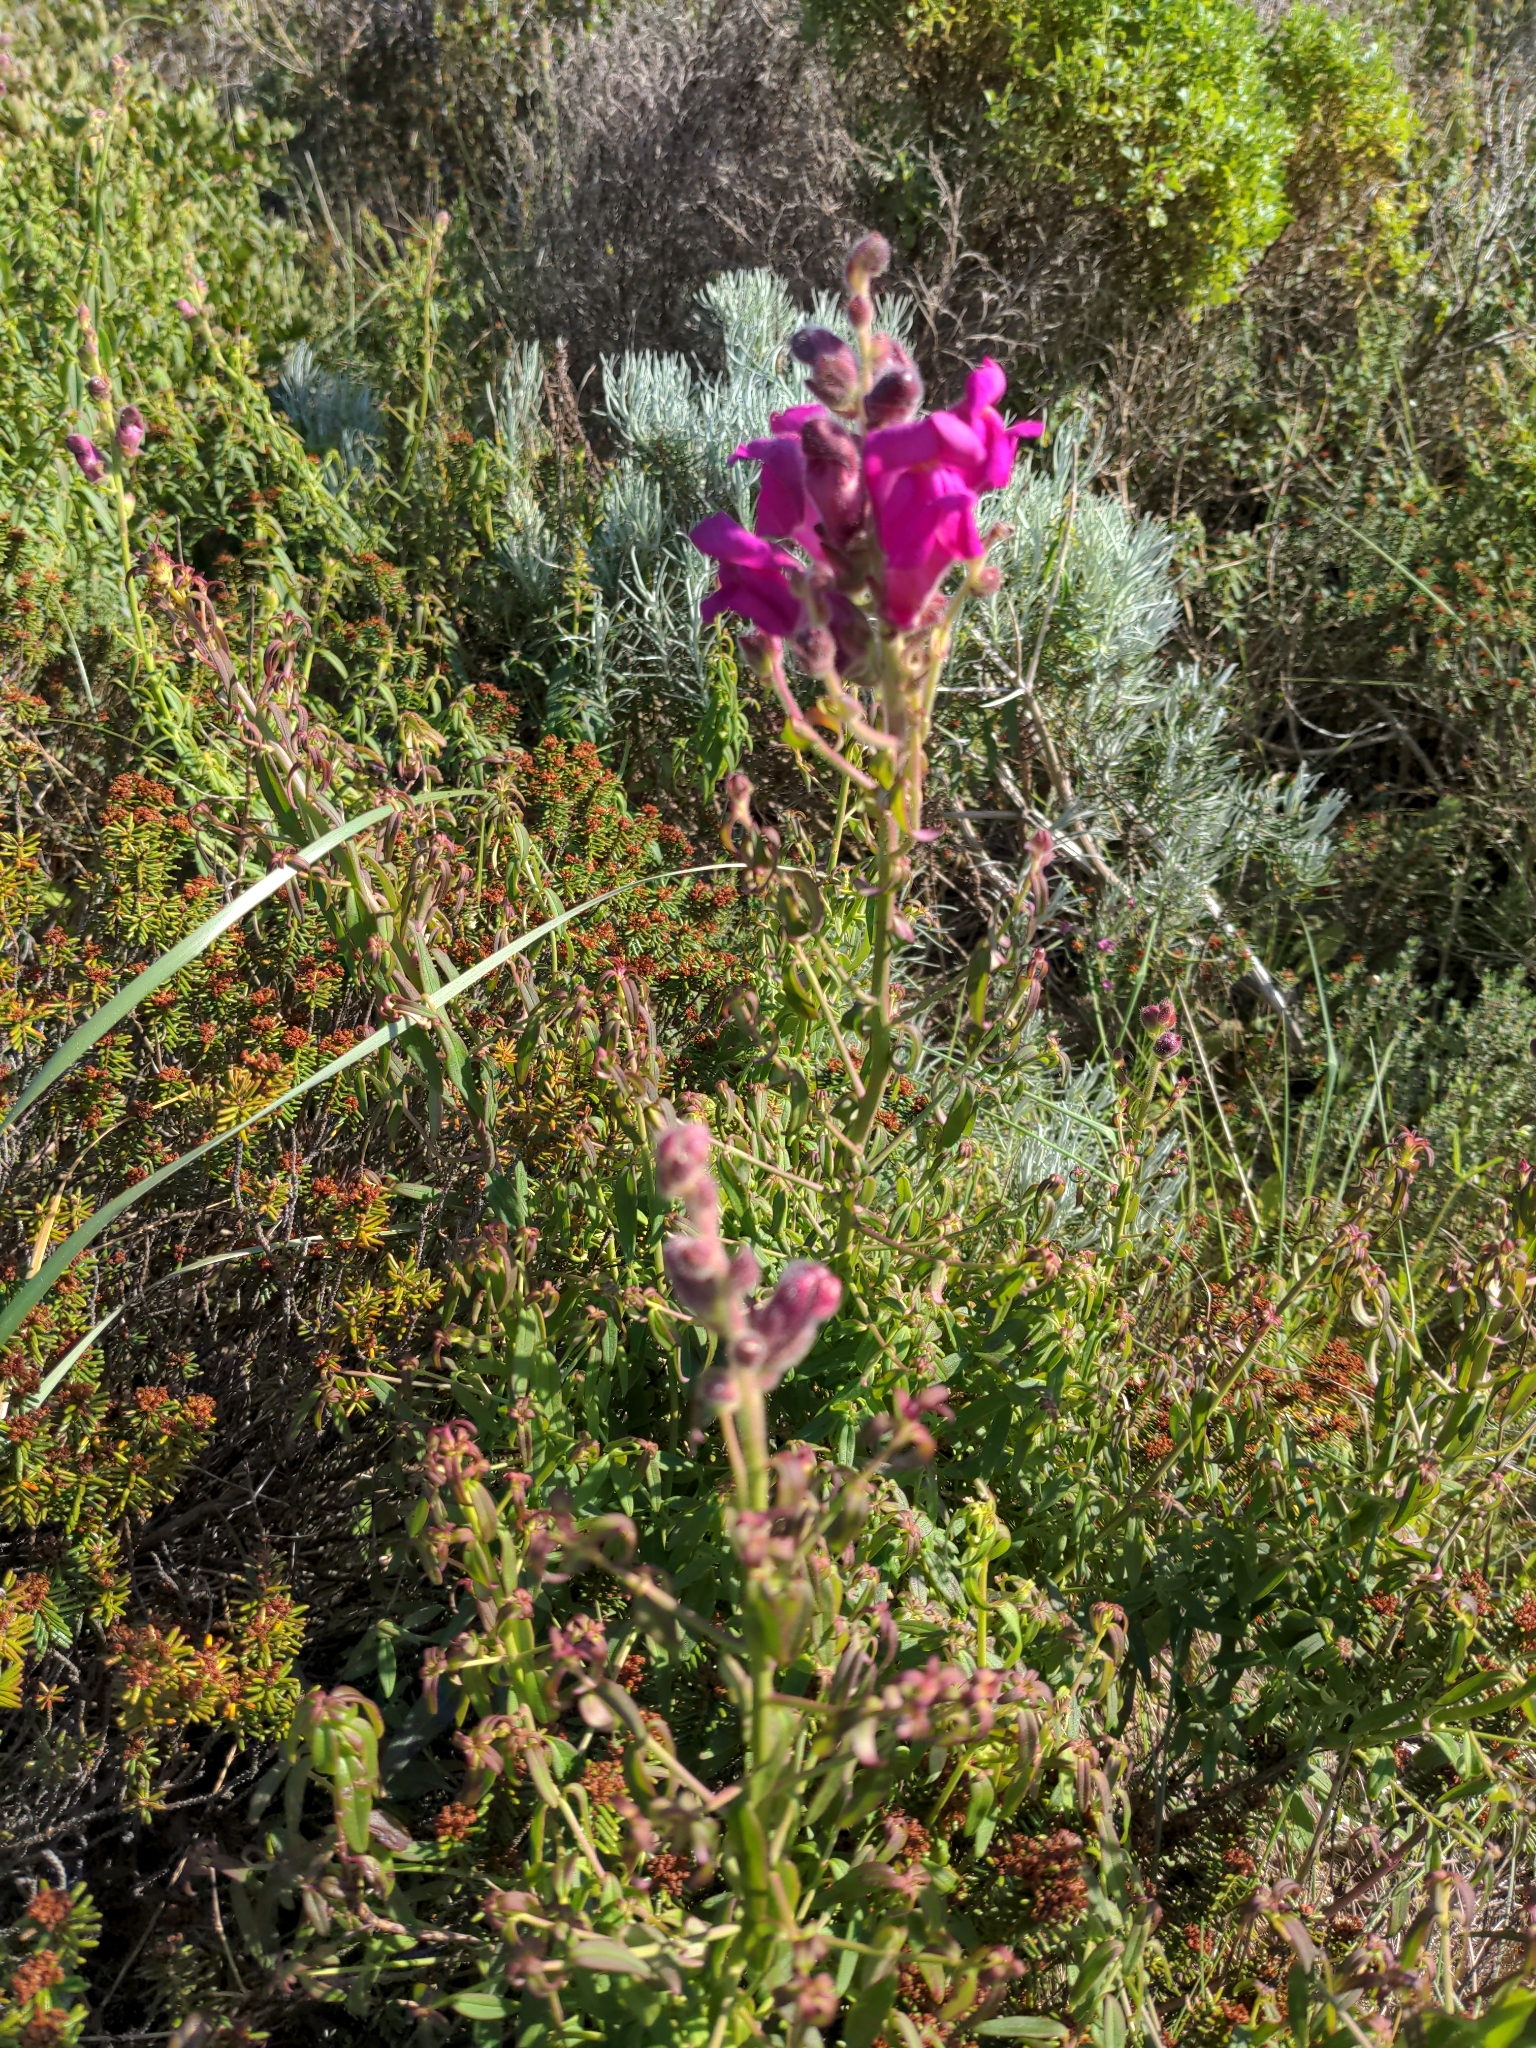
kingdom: Plantae
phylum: Tracheophyta
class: Magnoliopsida
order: Lamiales
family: Plantaginaceae
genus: Antirrhinum
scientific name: Antirrhinum cirrhigerum
